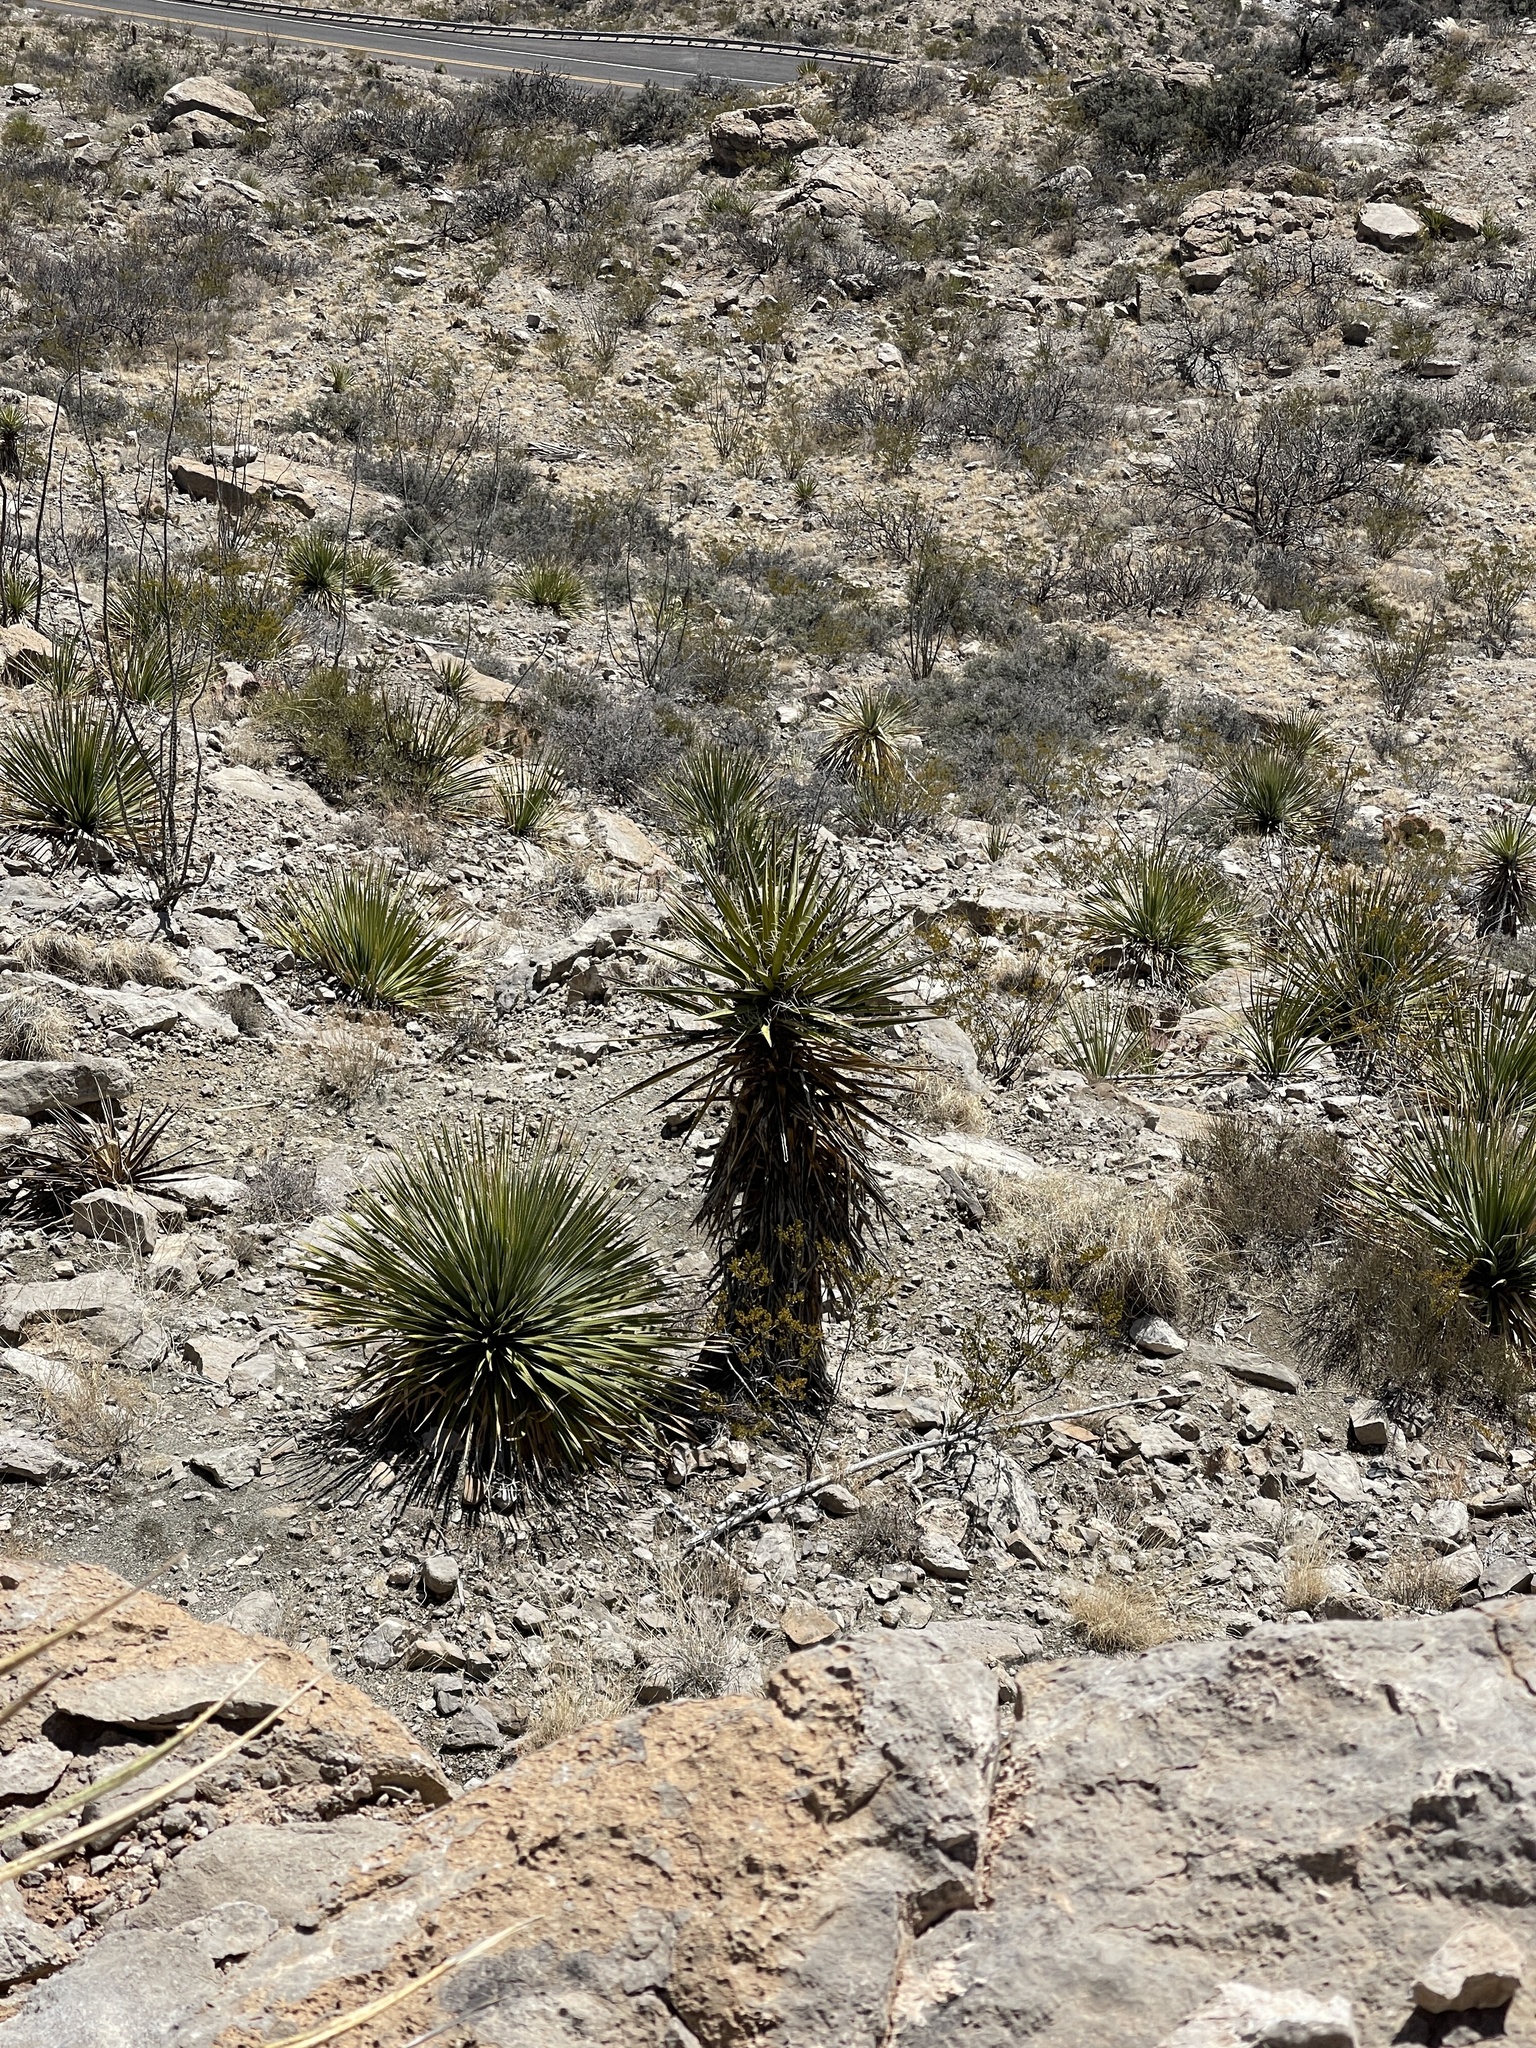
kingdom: Plantae
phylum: Tracheophyta
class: Liliopsida
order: Asparagales
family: Asparagaceae
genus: Yucca
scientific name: Yucca treculiana
